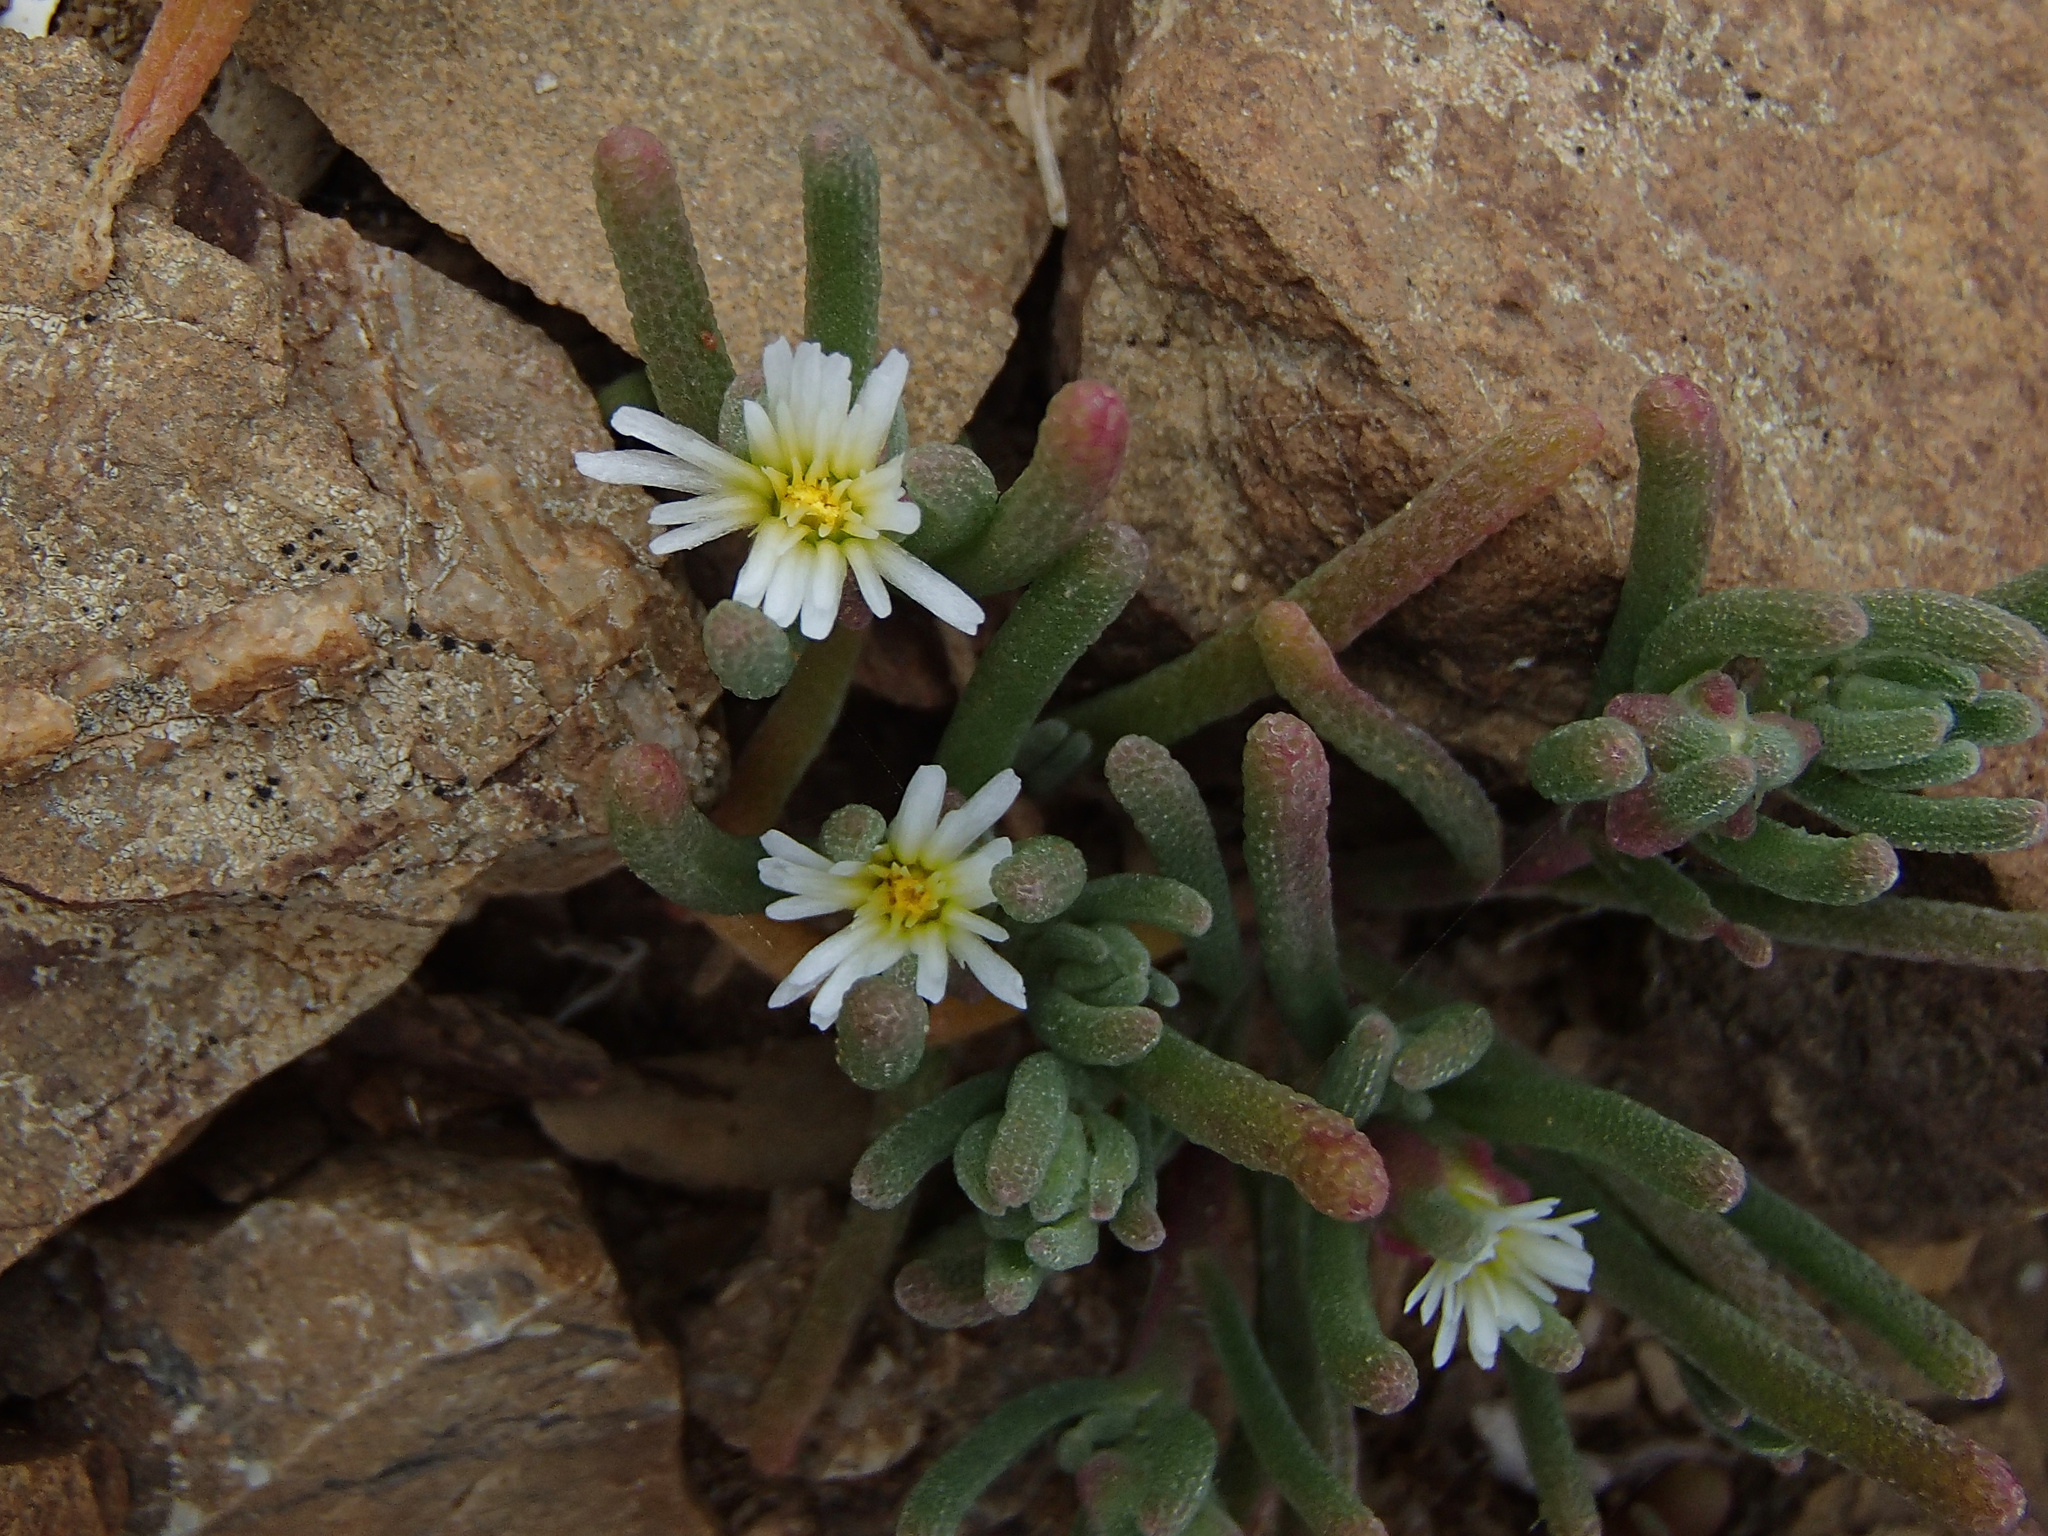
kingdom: Plantae
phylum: Tracheophyta
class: Magnoliopsida
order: Caryophyllales
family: Aizoaceae
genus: Mesembryanthemum
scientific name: Mesembryanthemum nodiflorum
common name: Slenderleaf iceplant
